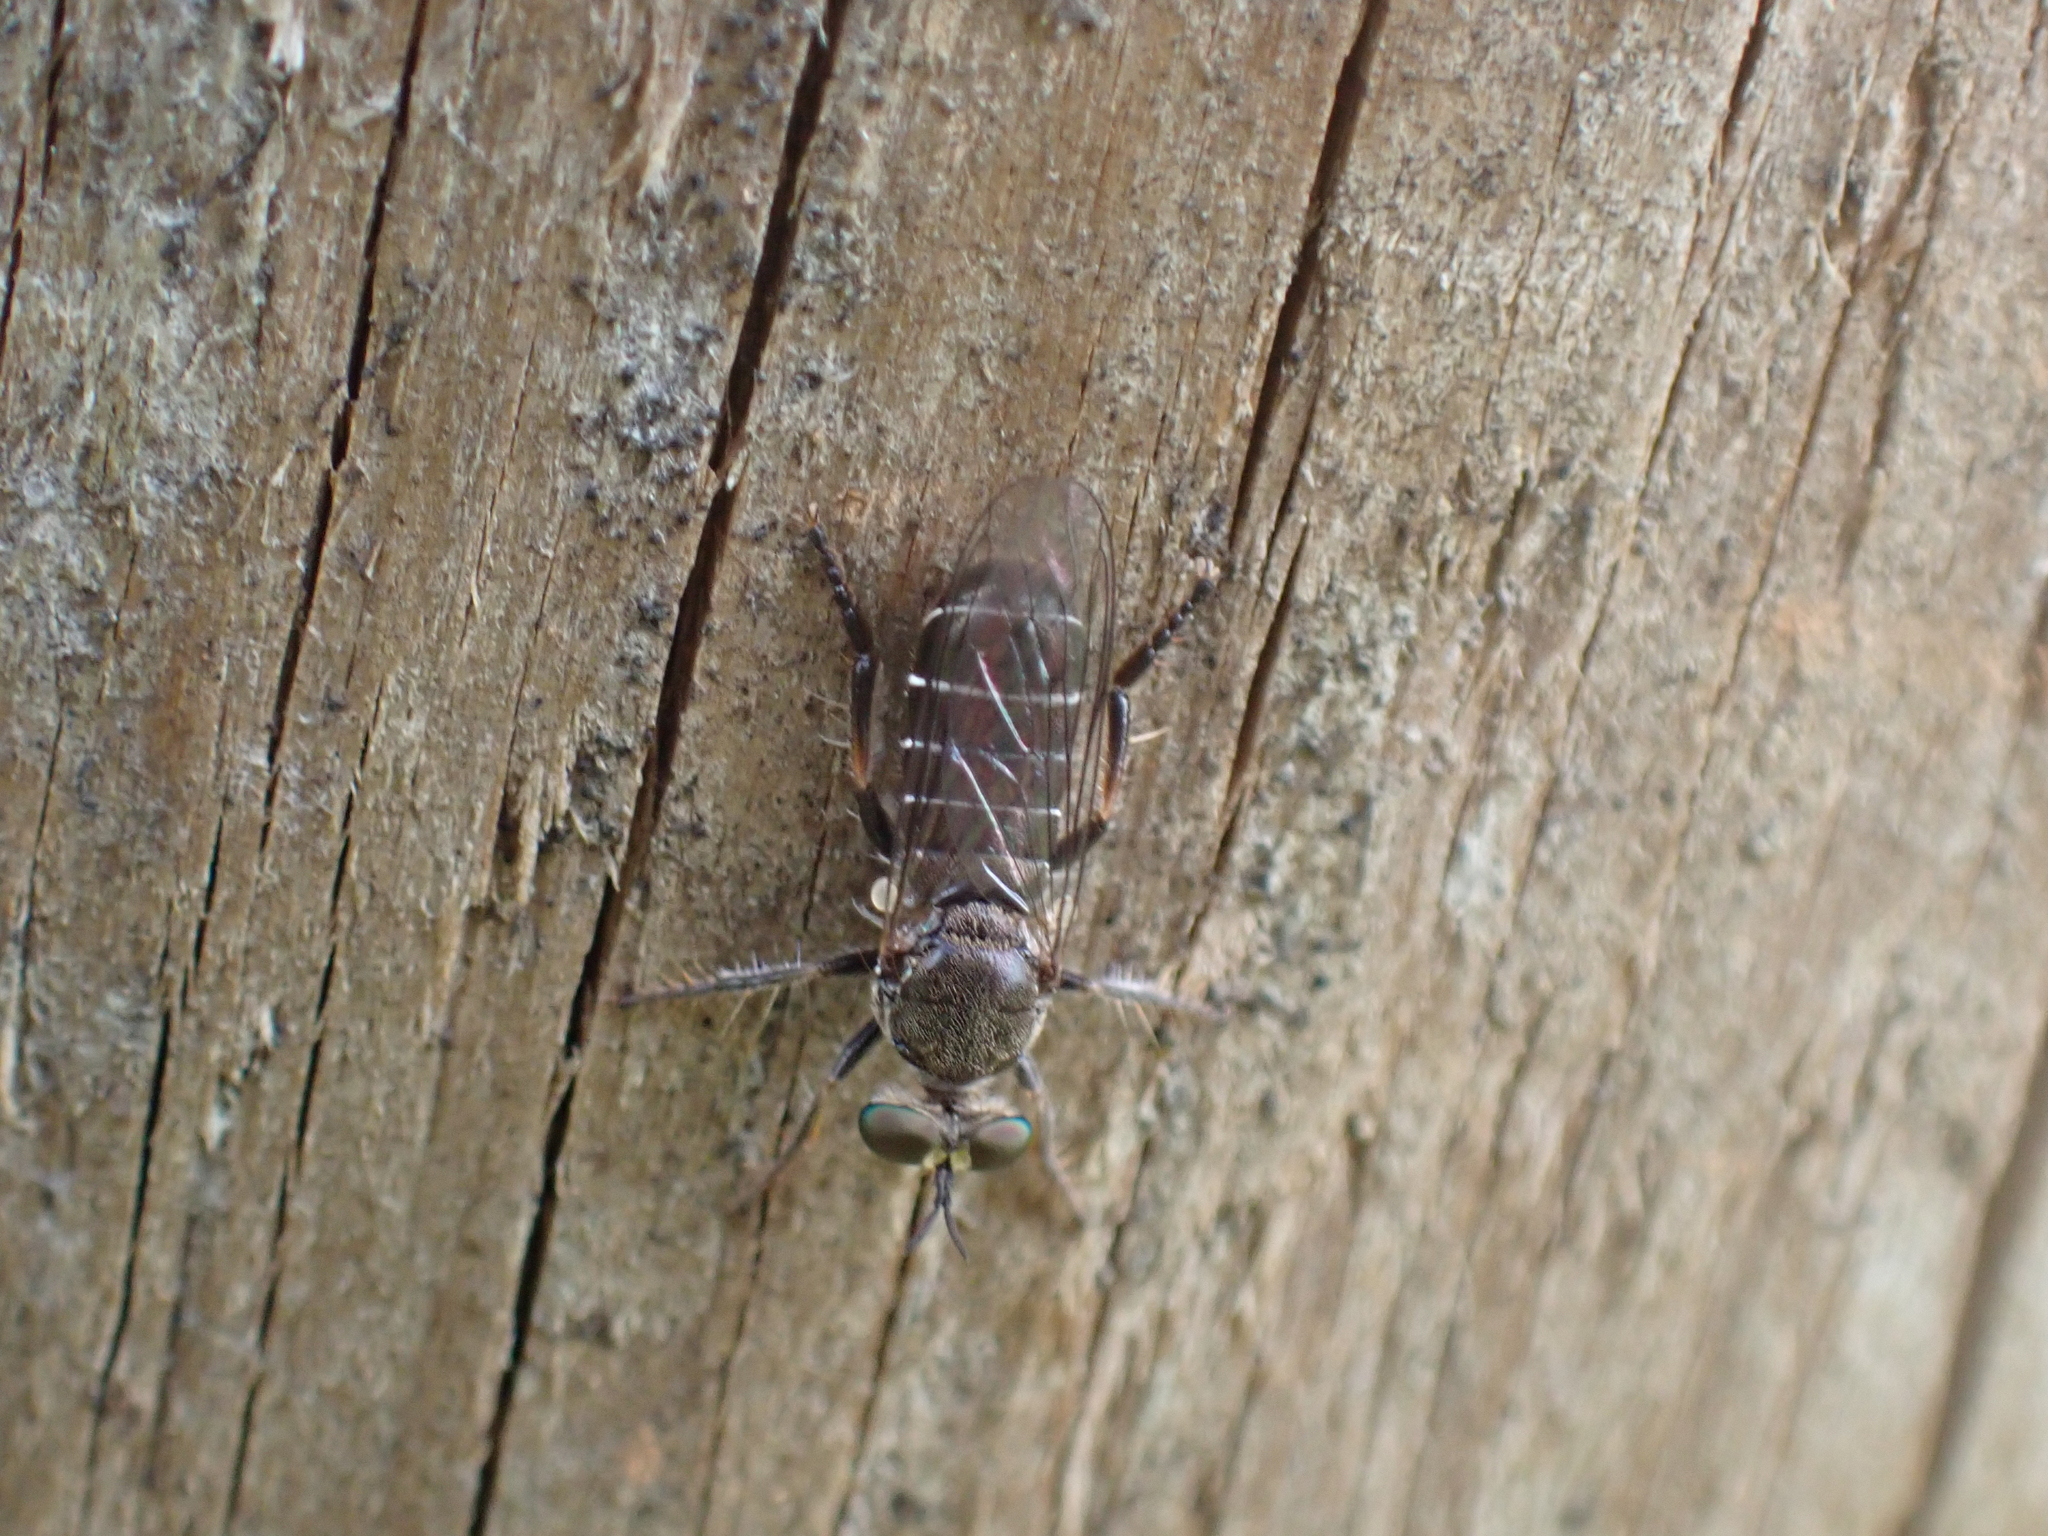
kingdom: Animalia
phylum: Arthropoda
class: Insecta
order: Diptera
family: Asilidae
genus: Atomosia
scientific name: Atomosia puella
